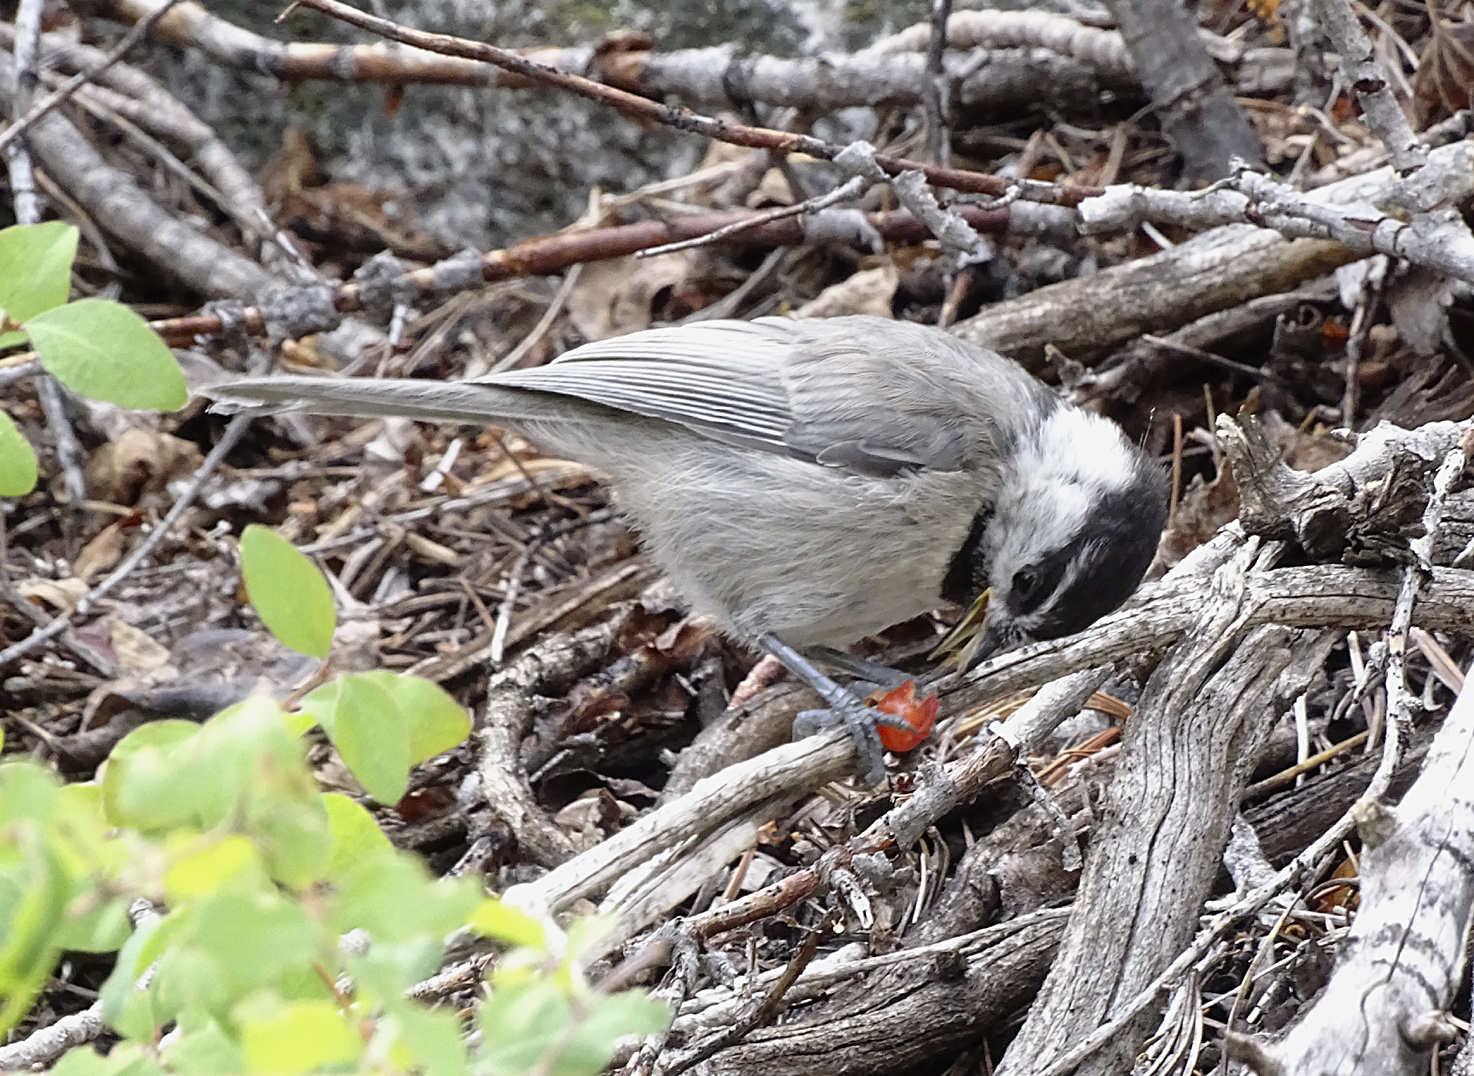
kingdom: Animalia
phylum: Chordata
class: Aves
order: Passeriformes
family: Paridae
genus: Poecile
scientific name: Poecile gambeli
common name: Mountain chickadee
